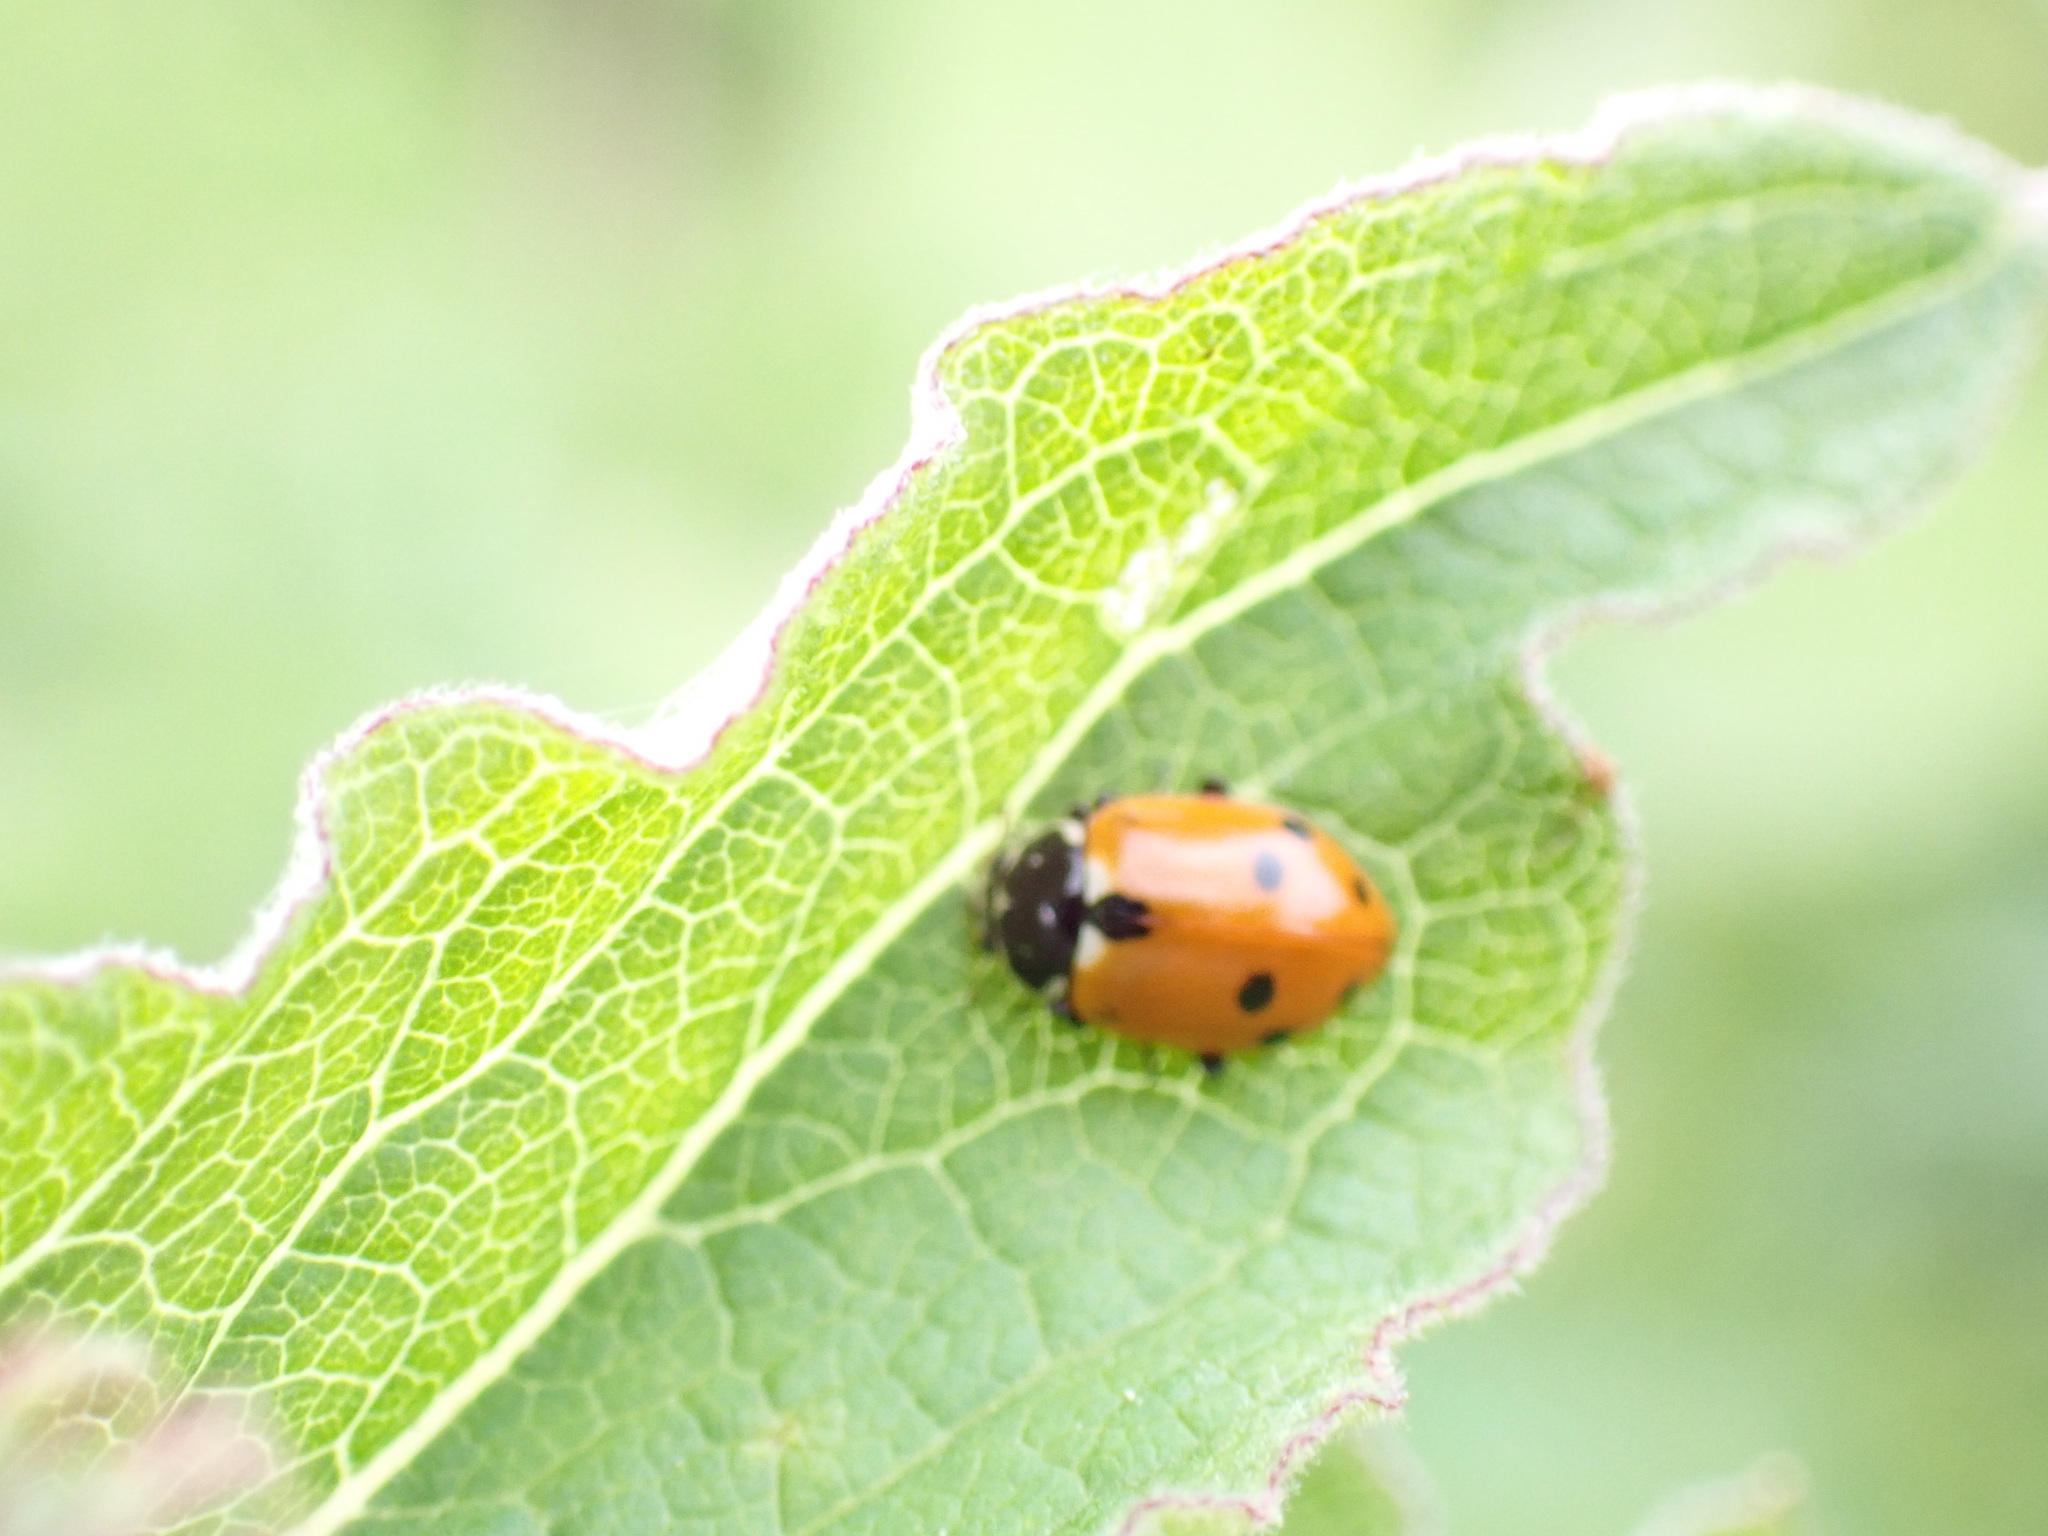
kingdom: Animalia
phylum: Arthropoda
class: Insecta
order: Coleoptera
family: Coccinellidae
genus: Hippodamia
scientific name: Hippodamia variegata
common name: Ladybird beetle
